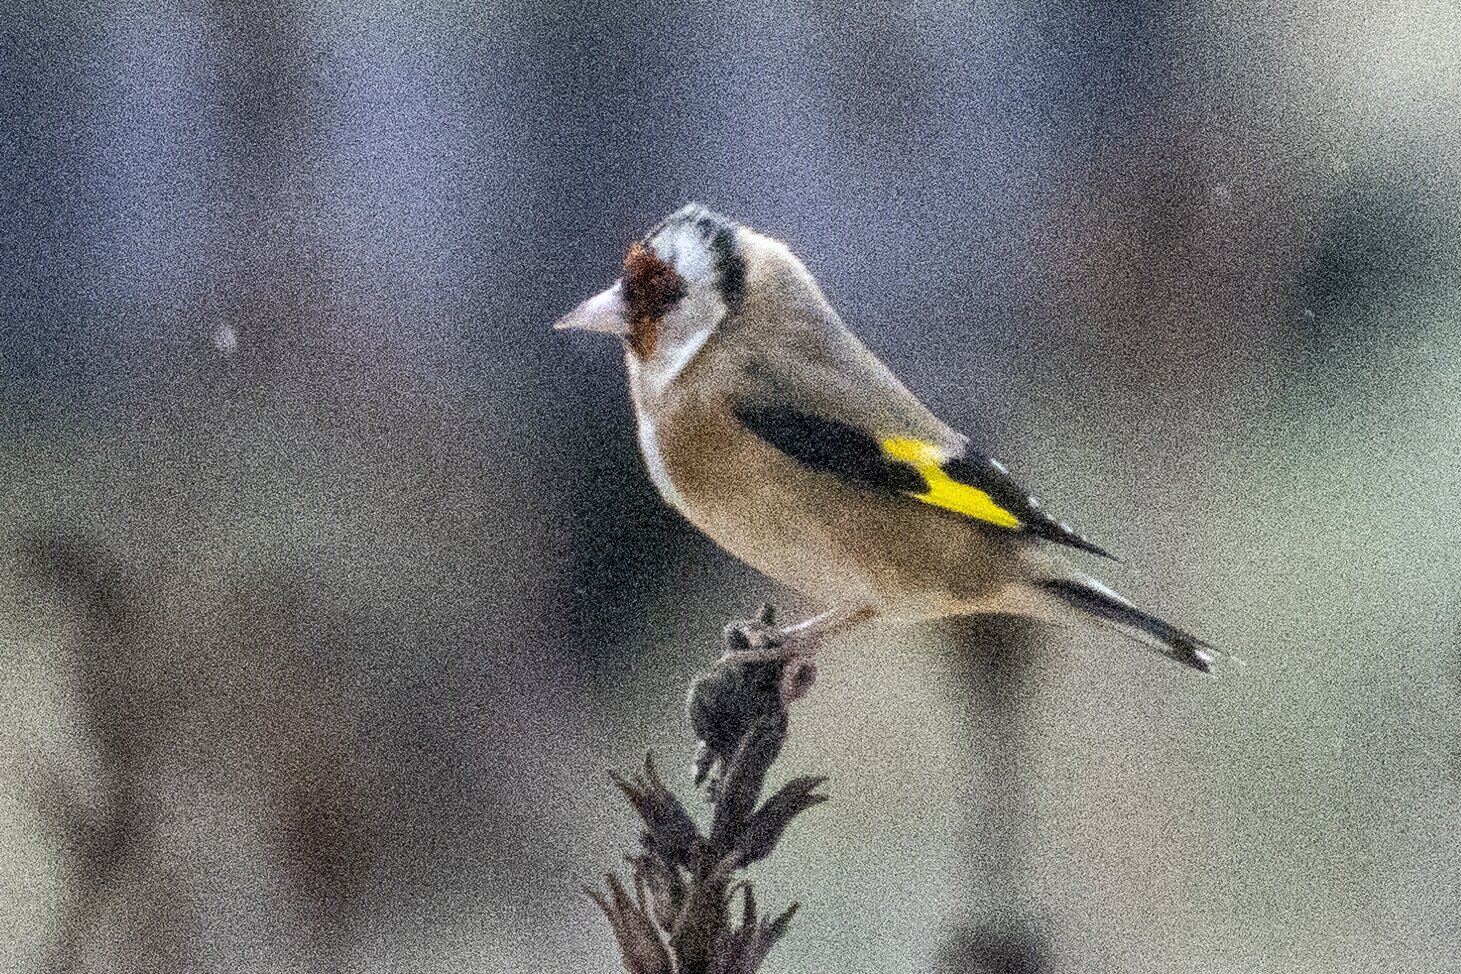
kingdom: Animalia
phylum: Chordata
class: Aves
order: Passeriformes
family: Fringillidae
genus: Carduelis
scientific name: Carduelis carduelis
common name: European goldfinch
